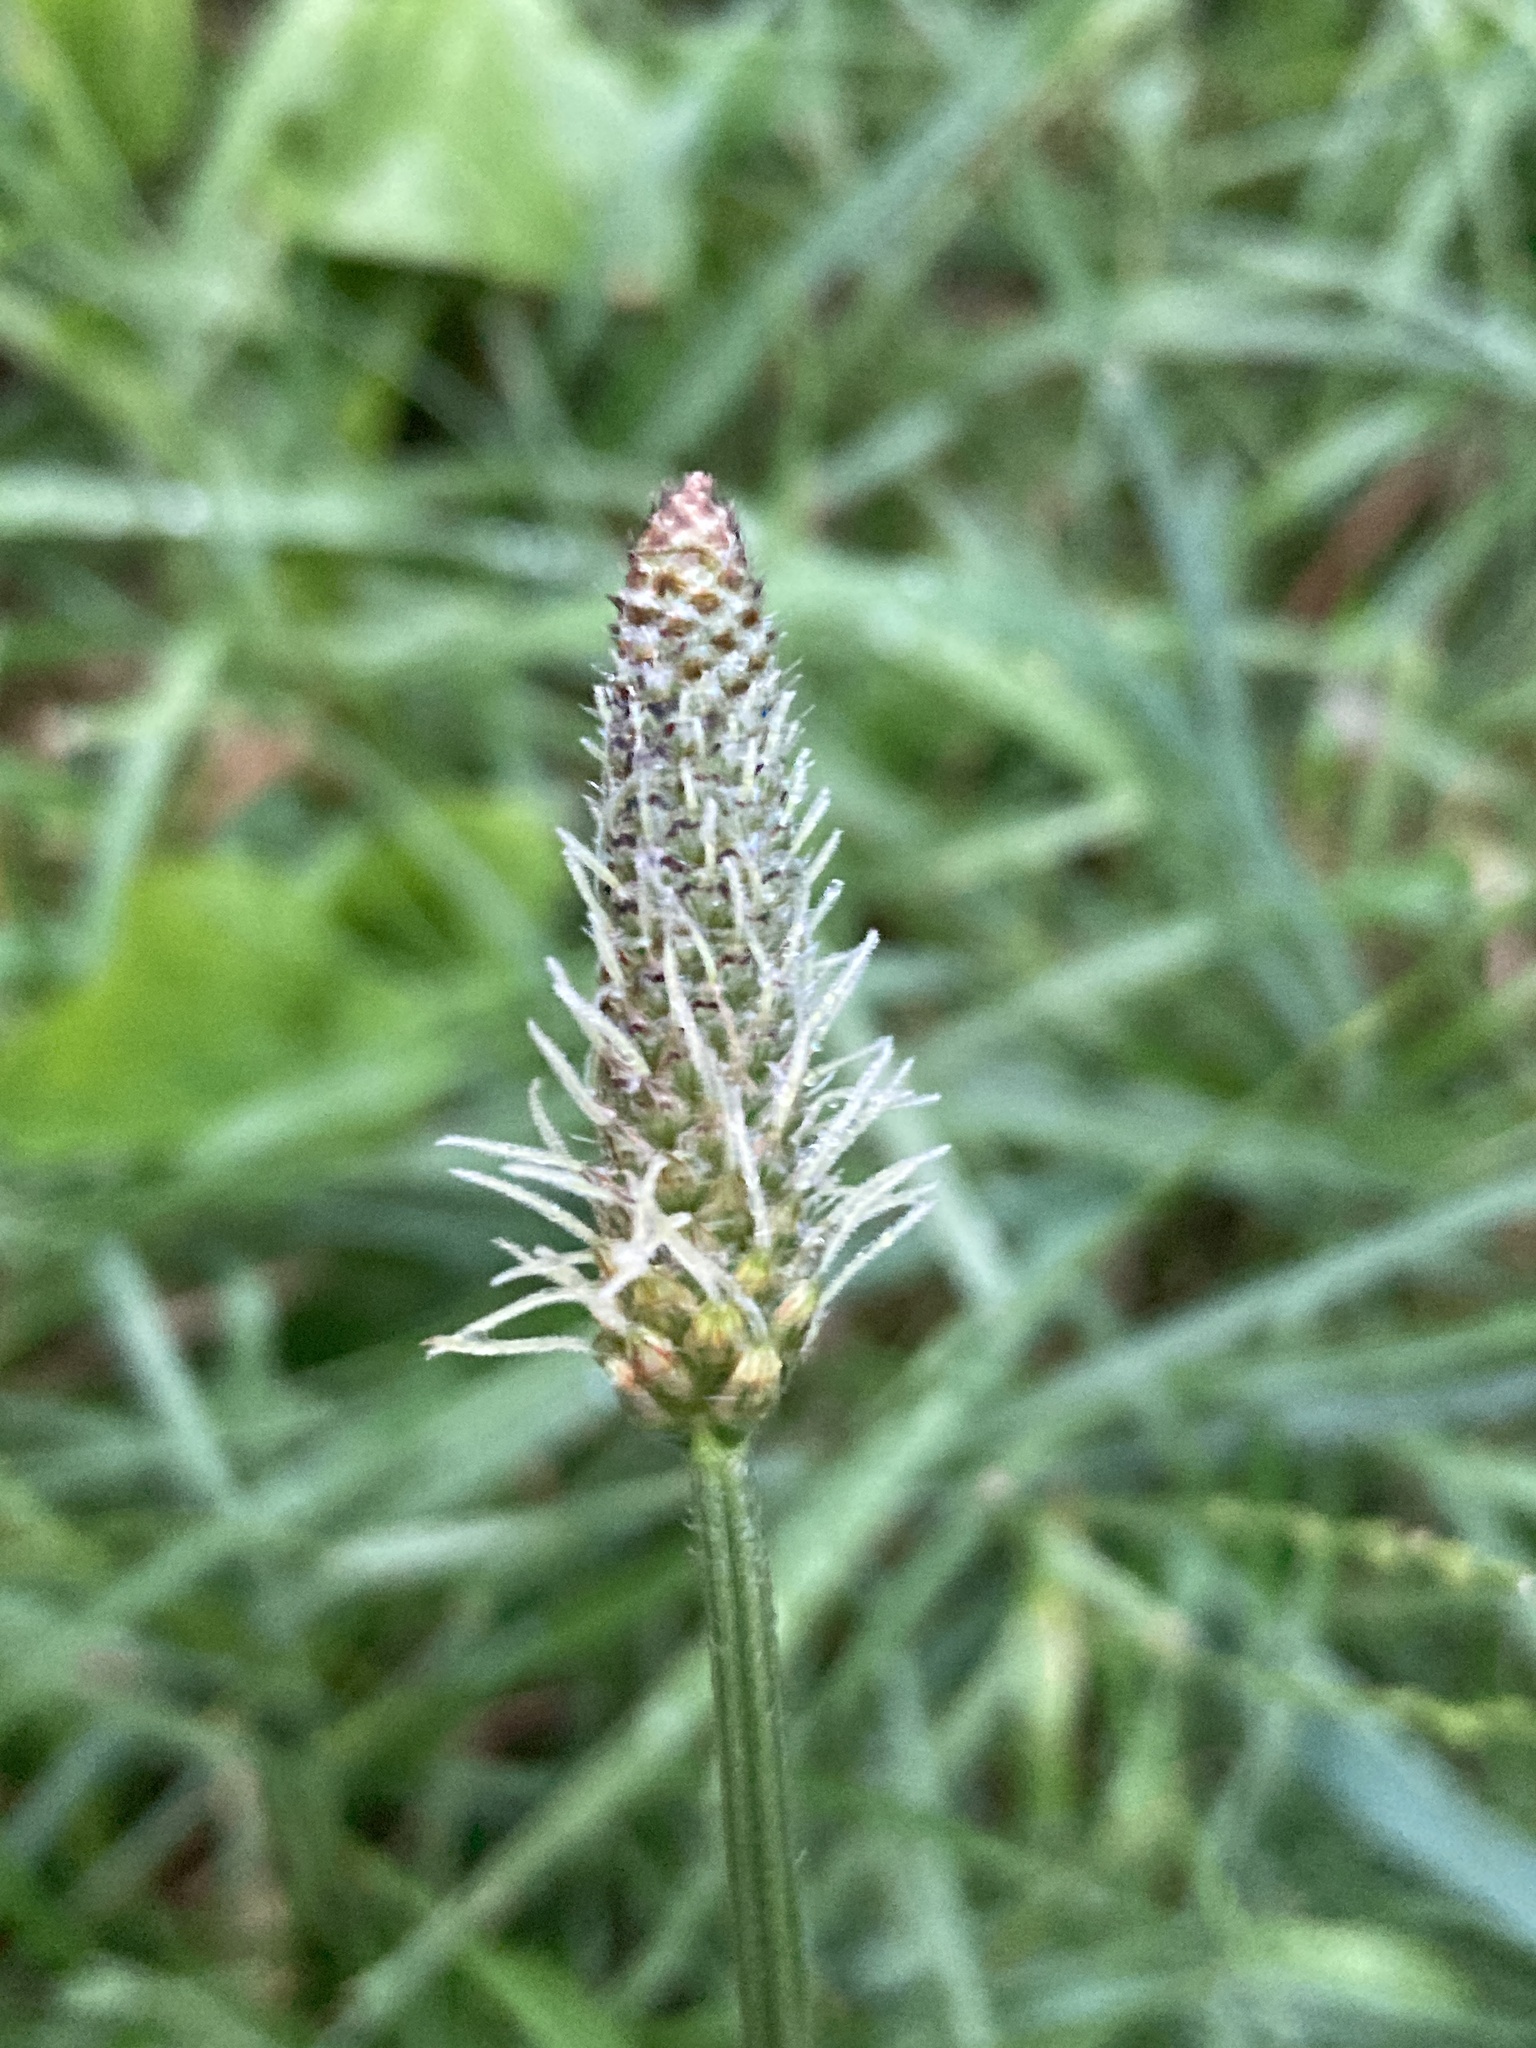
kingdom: Plantae
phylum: Tracheophyta
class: Magnoliopsida
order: Lamiales
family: Plantaginaceae
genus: Plantago
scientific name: Plantago lanceolata
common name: Ribwort plantain
